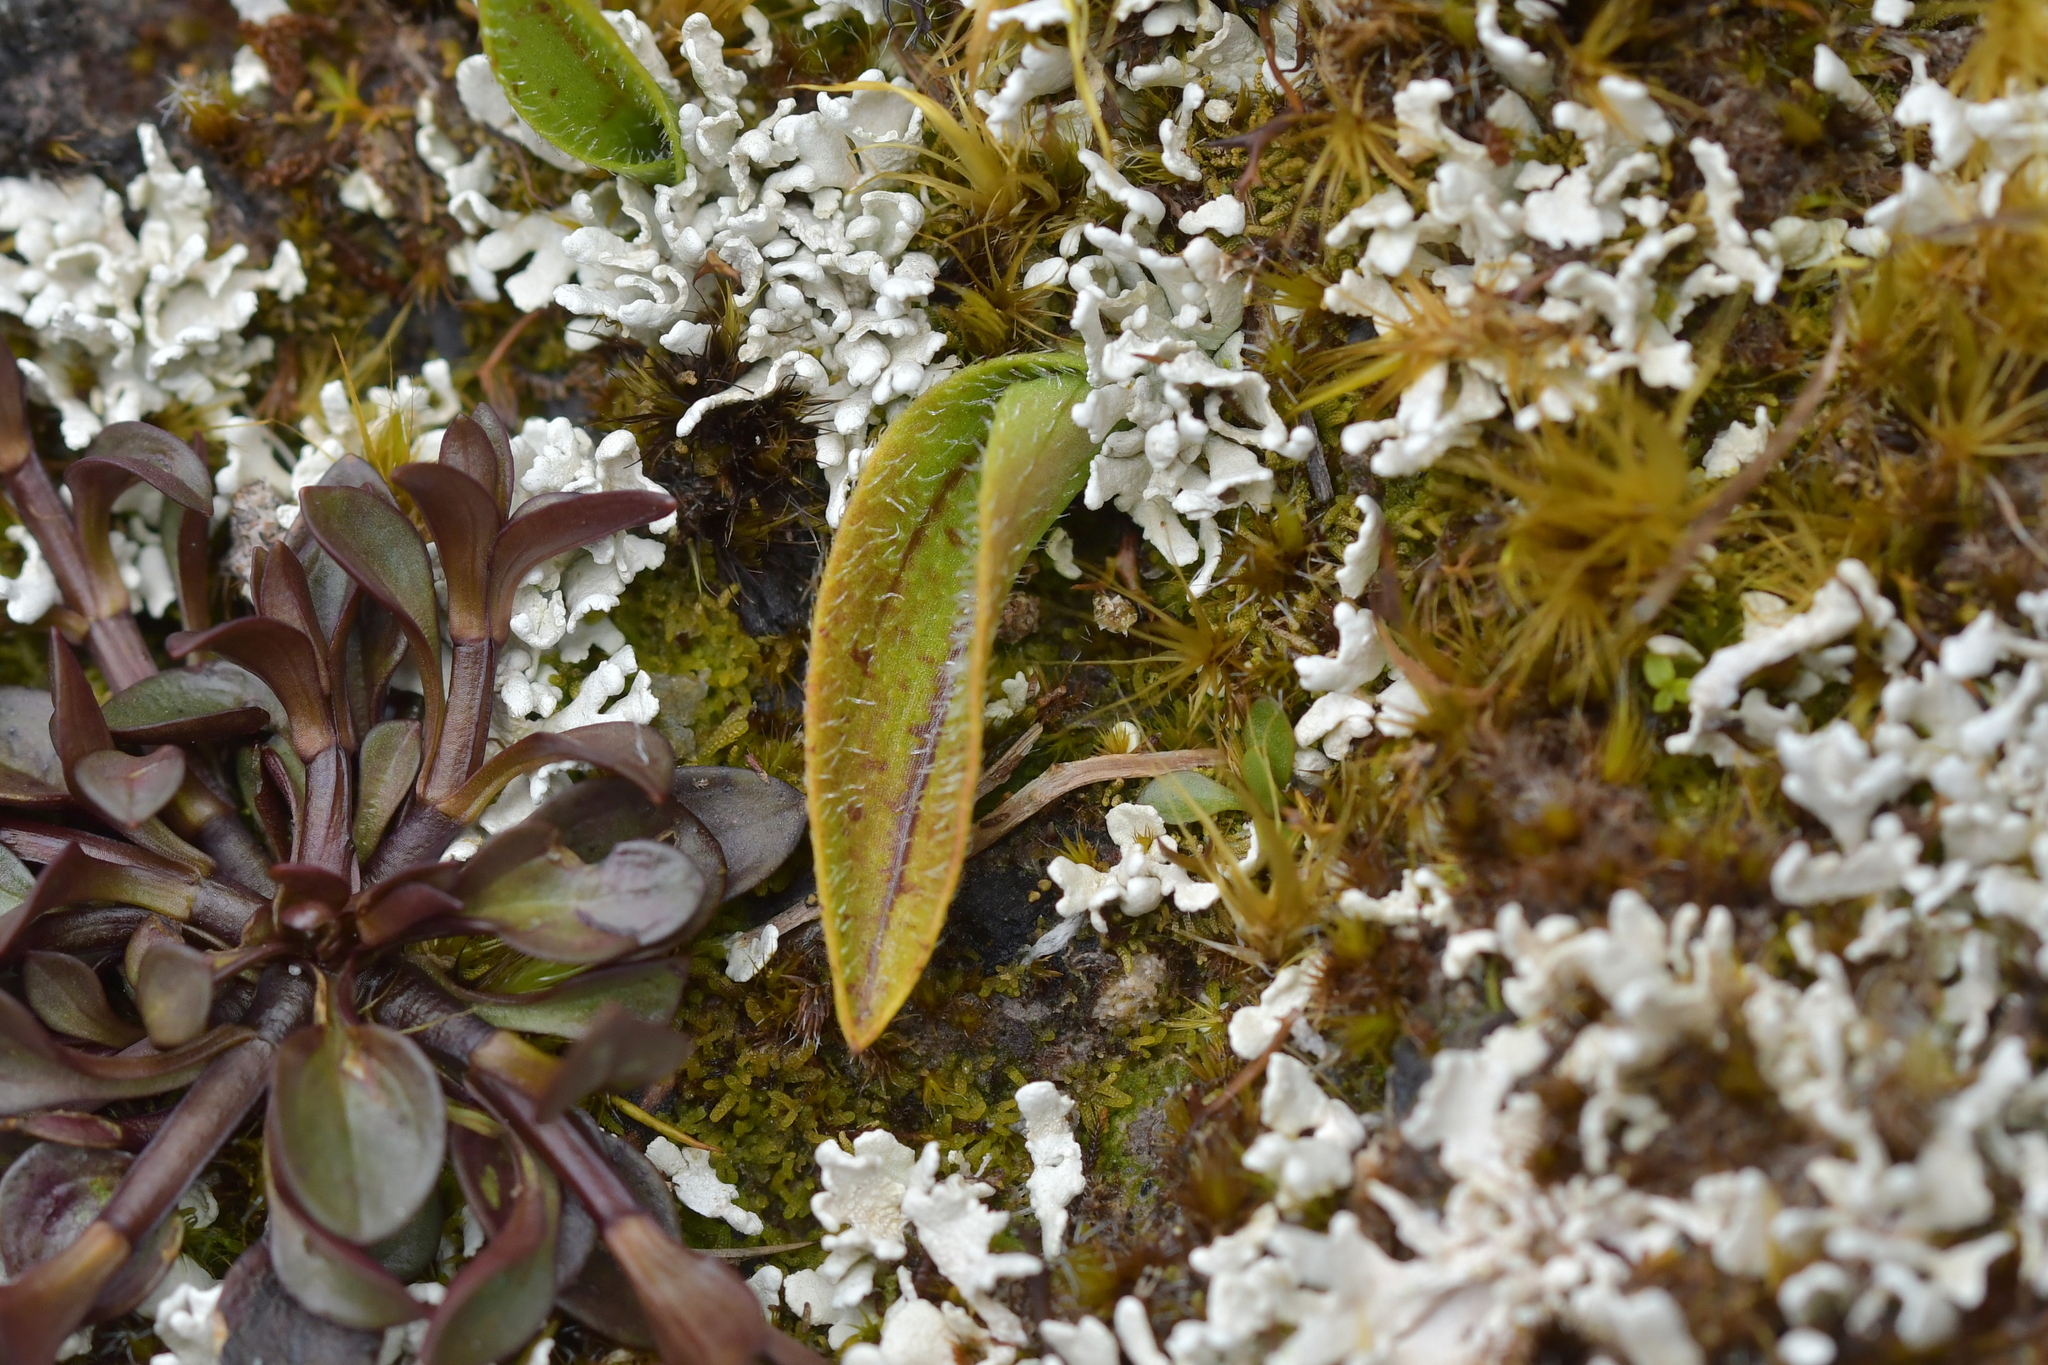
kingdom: Plantae
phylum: Tracheophyta
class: Liliopsida
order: Asparagales
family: Orchidaceae
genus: Aporostylis
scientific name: Aporostylis bifolia
